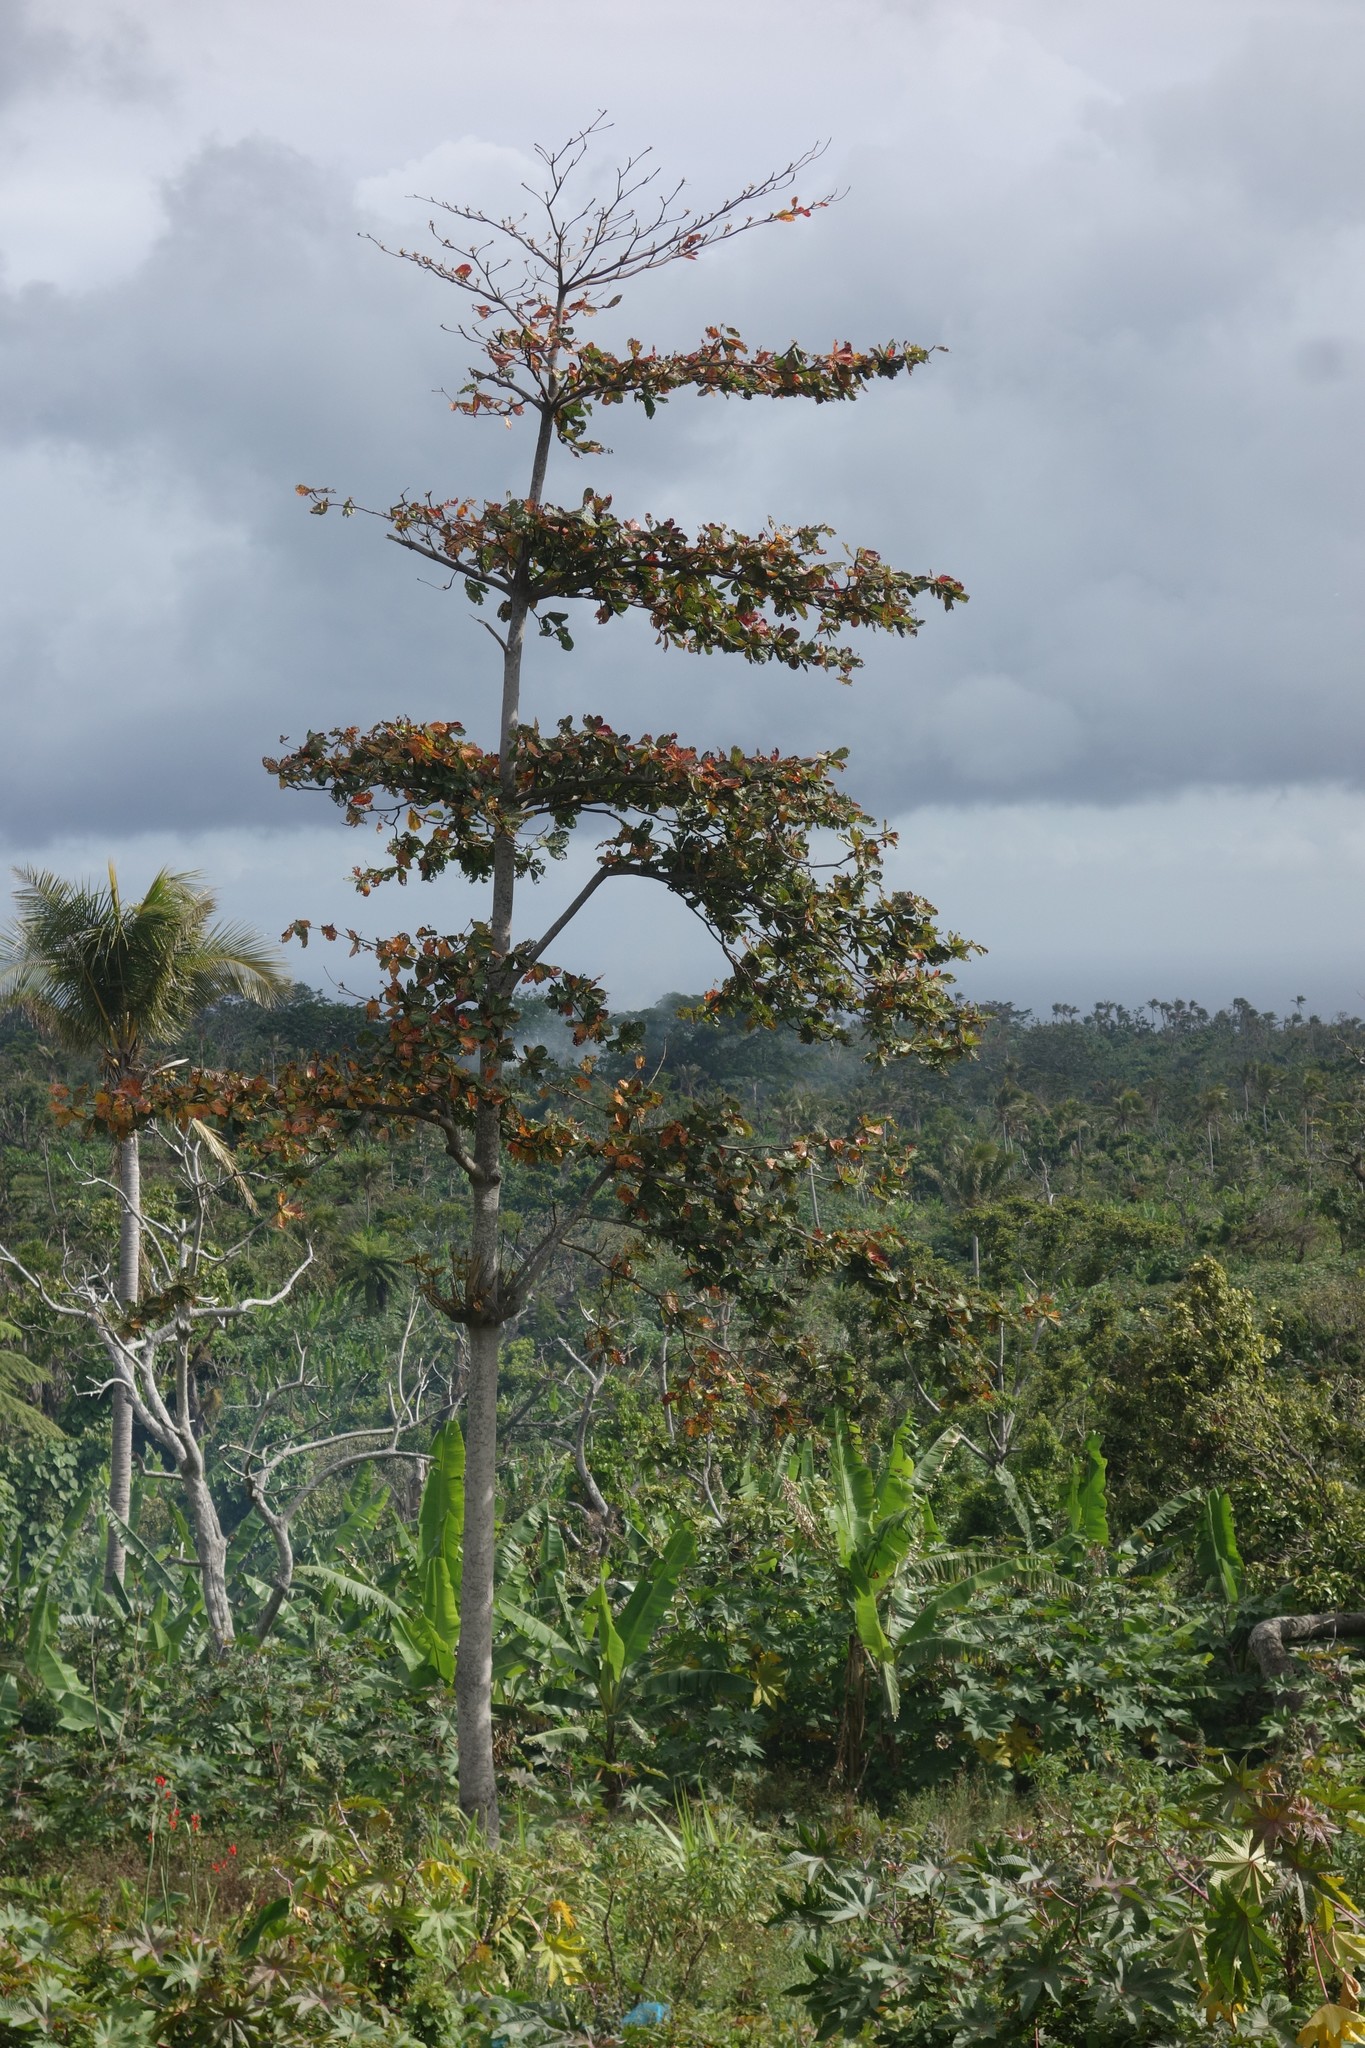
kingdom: Plantae
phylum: Tracheophyta
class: Magnoliopsida
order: Myrtales
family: Combretaceae
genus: Terminalia
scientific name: Terminalia catappa
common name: Tropical almond
